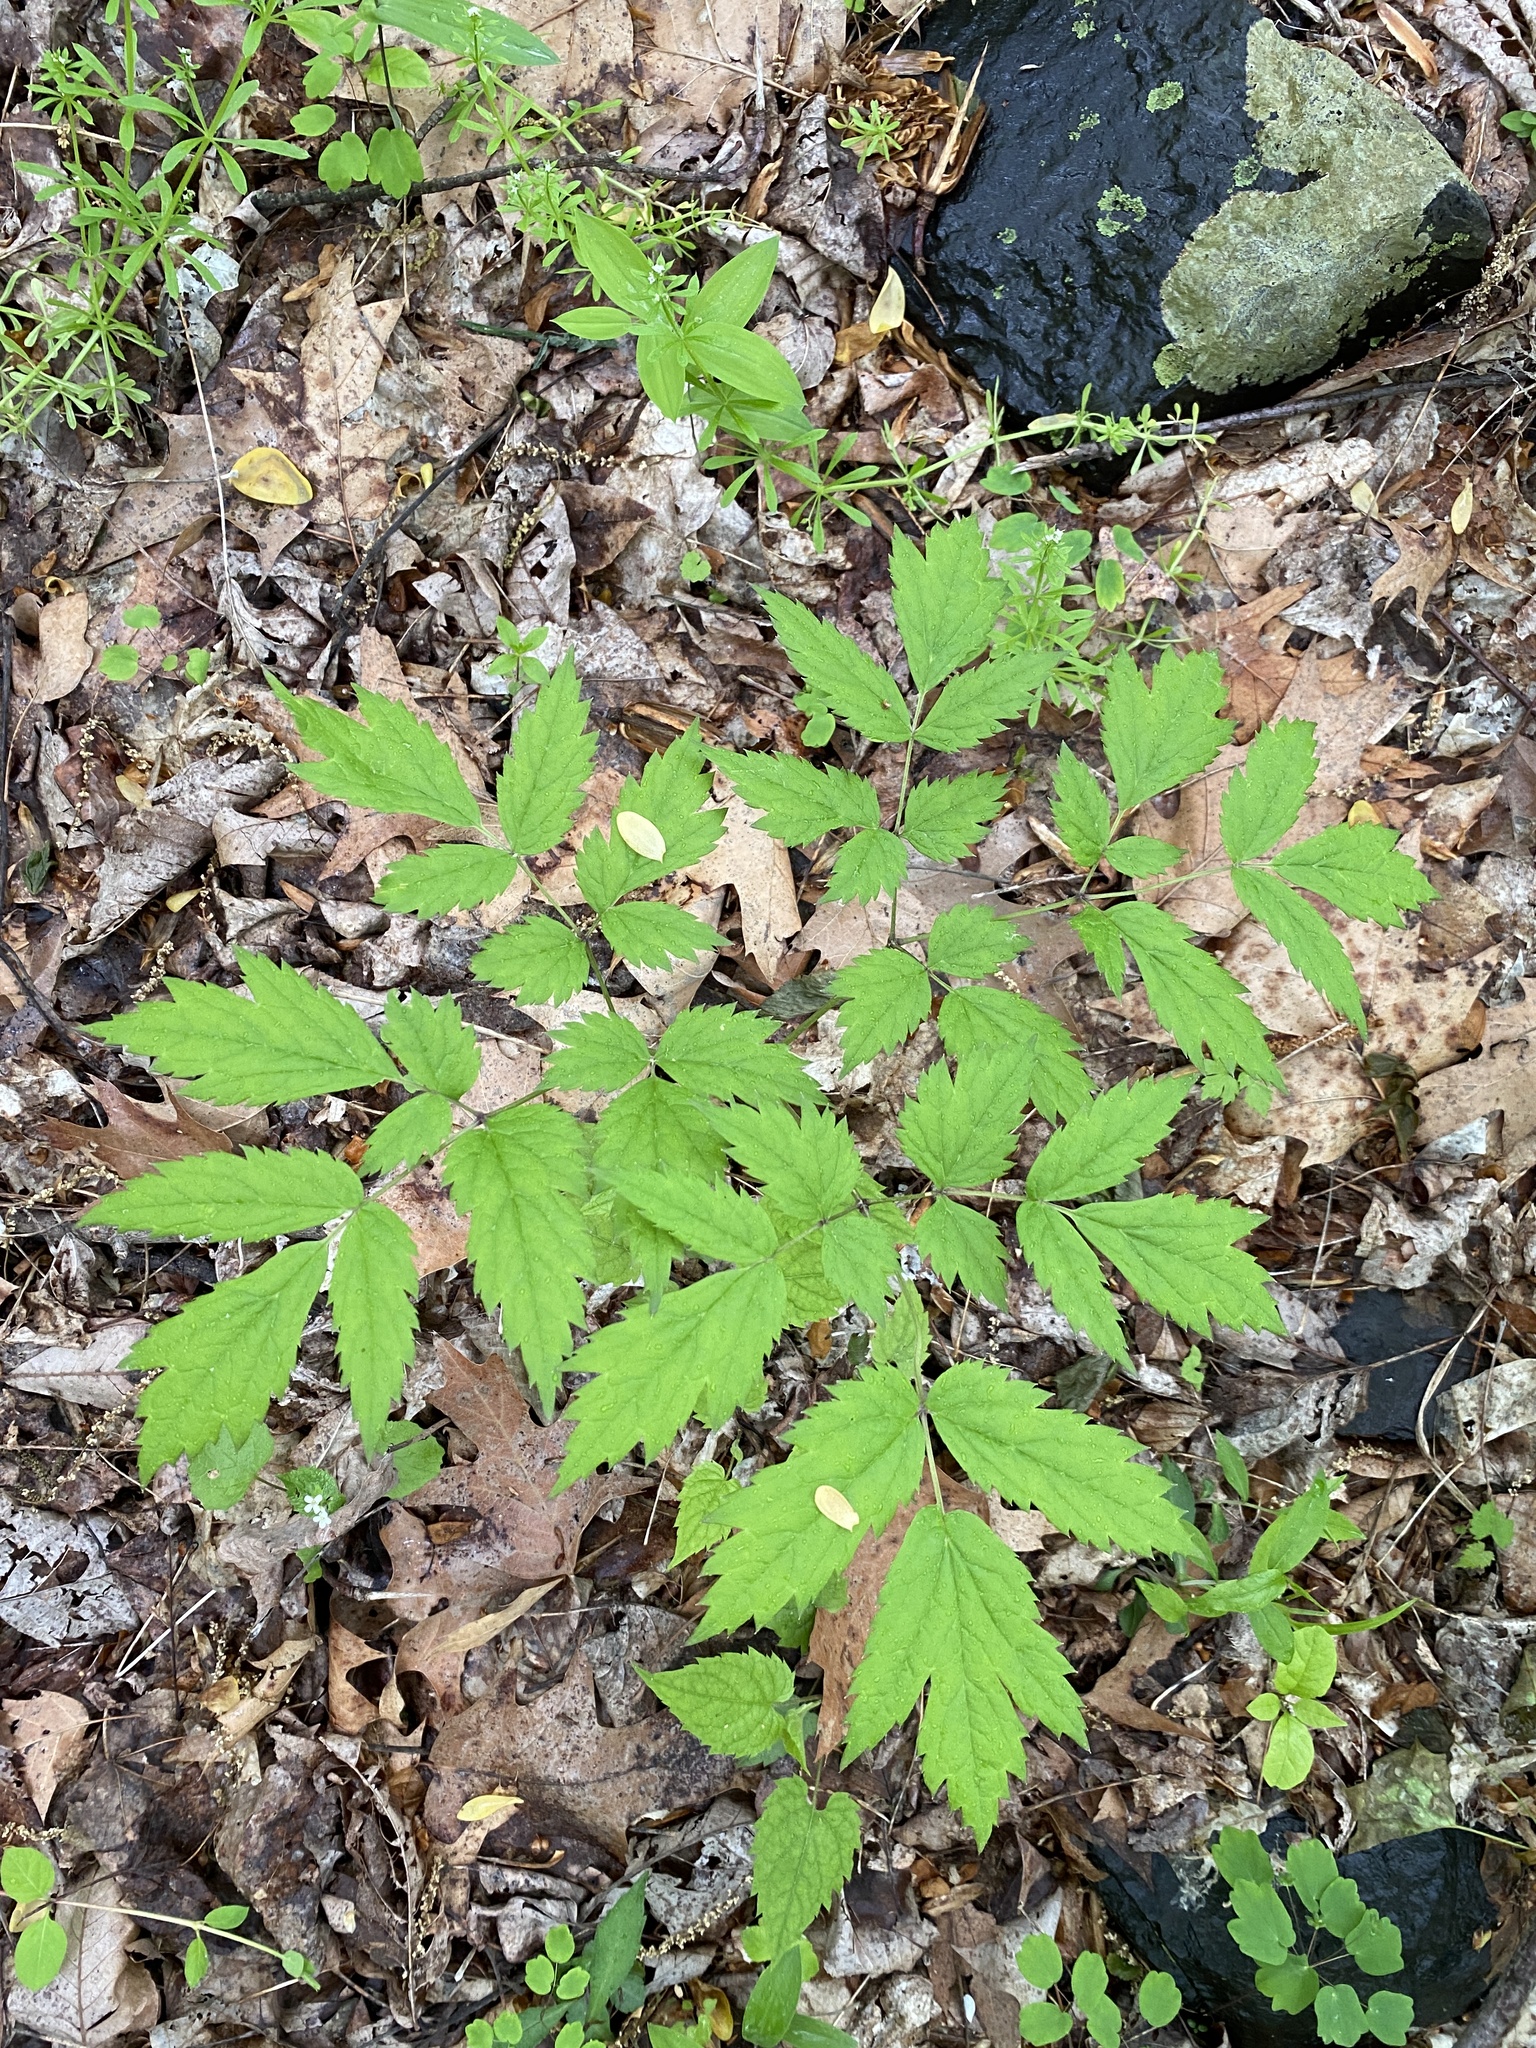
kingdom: Plantae
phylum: Tracheophyta
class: Magnoliopsida
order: Ranunculales
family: Ranunculaceae
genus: Actaea
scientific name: Actaea racemosa
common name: Black cohosh
